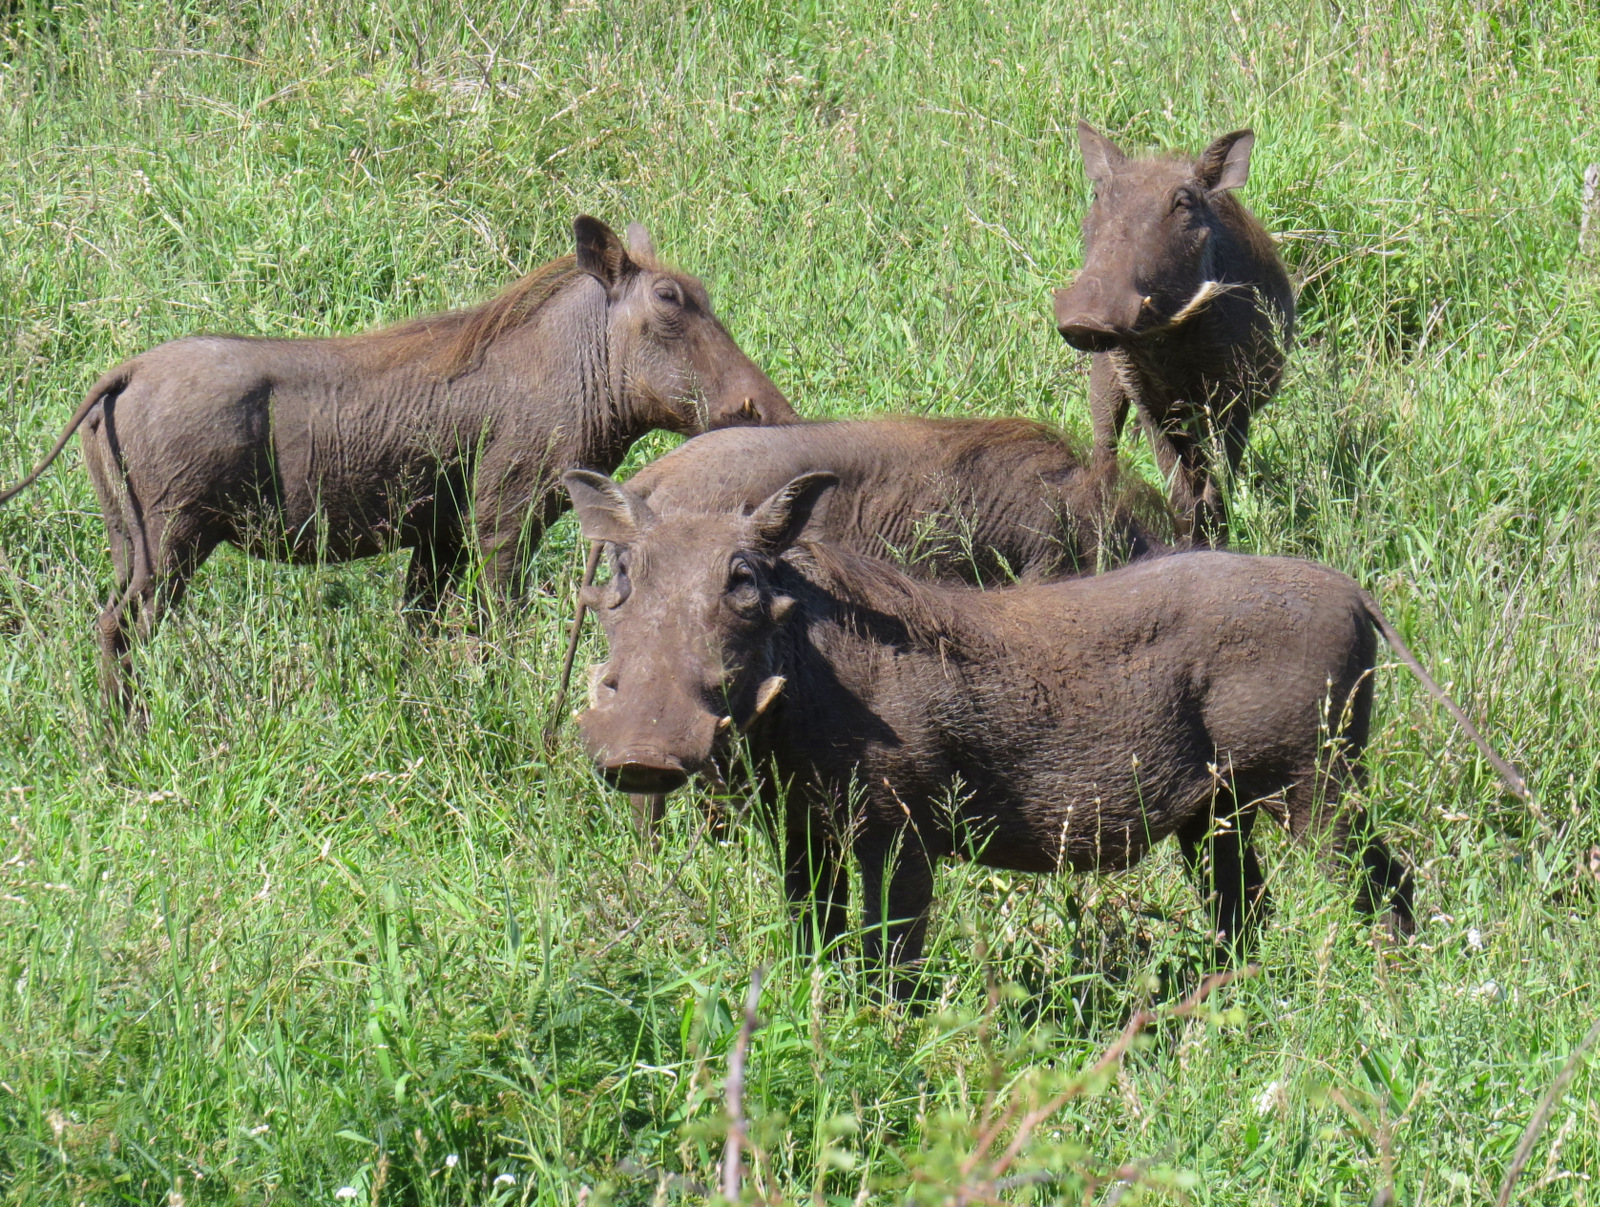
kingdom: Animalia
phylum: Chordata
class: Mammalia
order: Artiodactyla
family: Suidae
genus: Phacochoerus
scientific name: Phacochoerus africanus
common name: Common warthog
